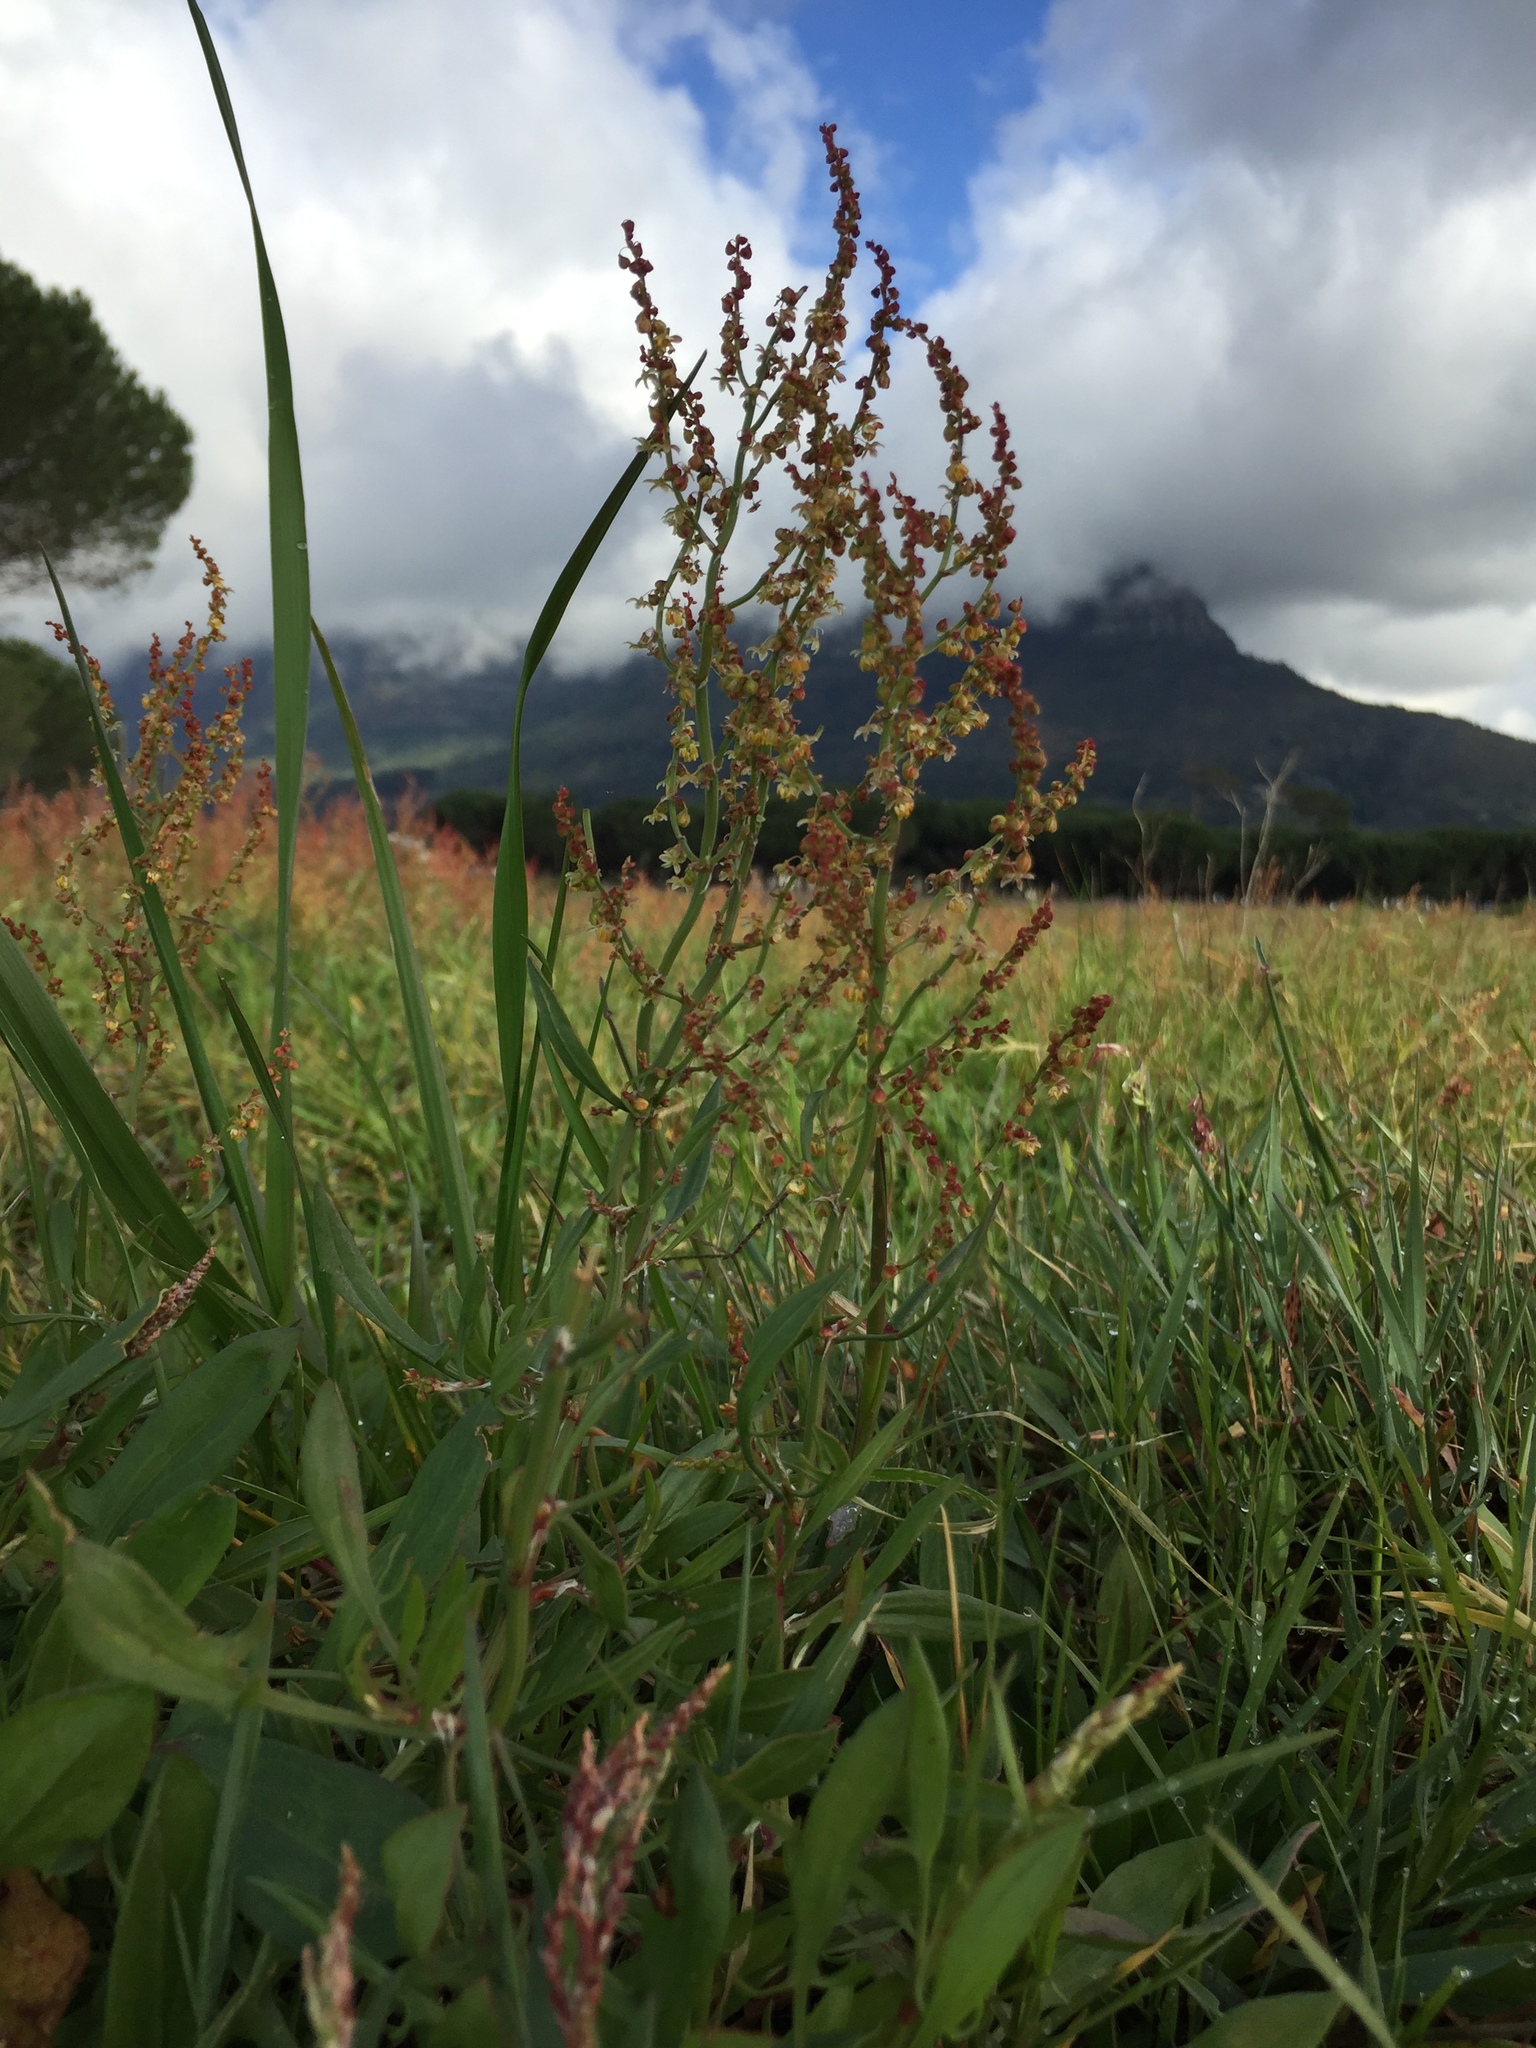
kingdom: Plantae
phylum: Tracheophyta
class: Magnoliopsida
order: Caryophyllales
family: Polygonaceae
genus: Rumex
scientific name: Rumex acetosella
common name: Common sheep sorrel
